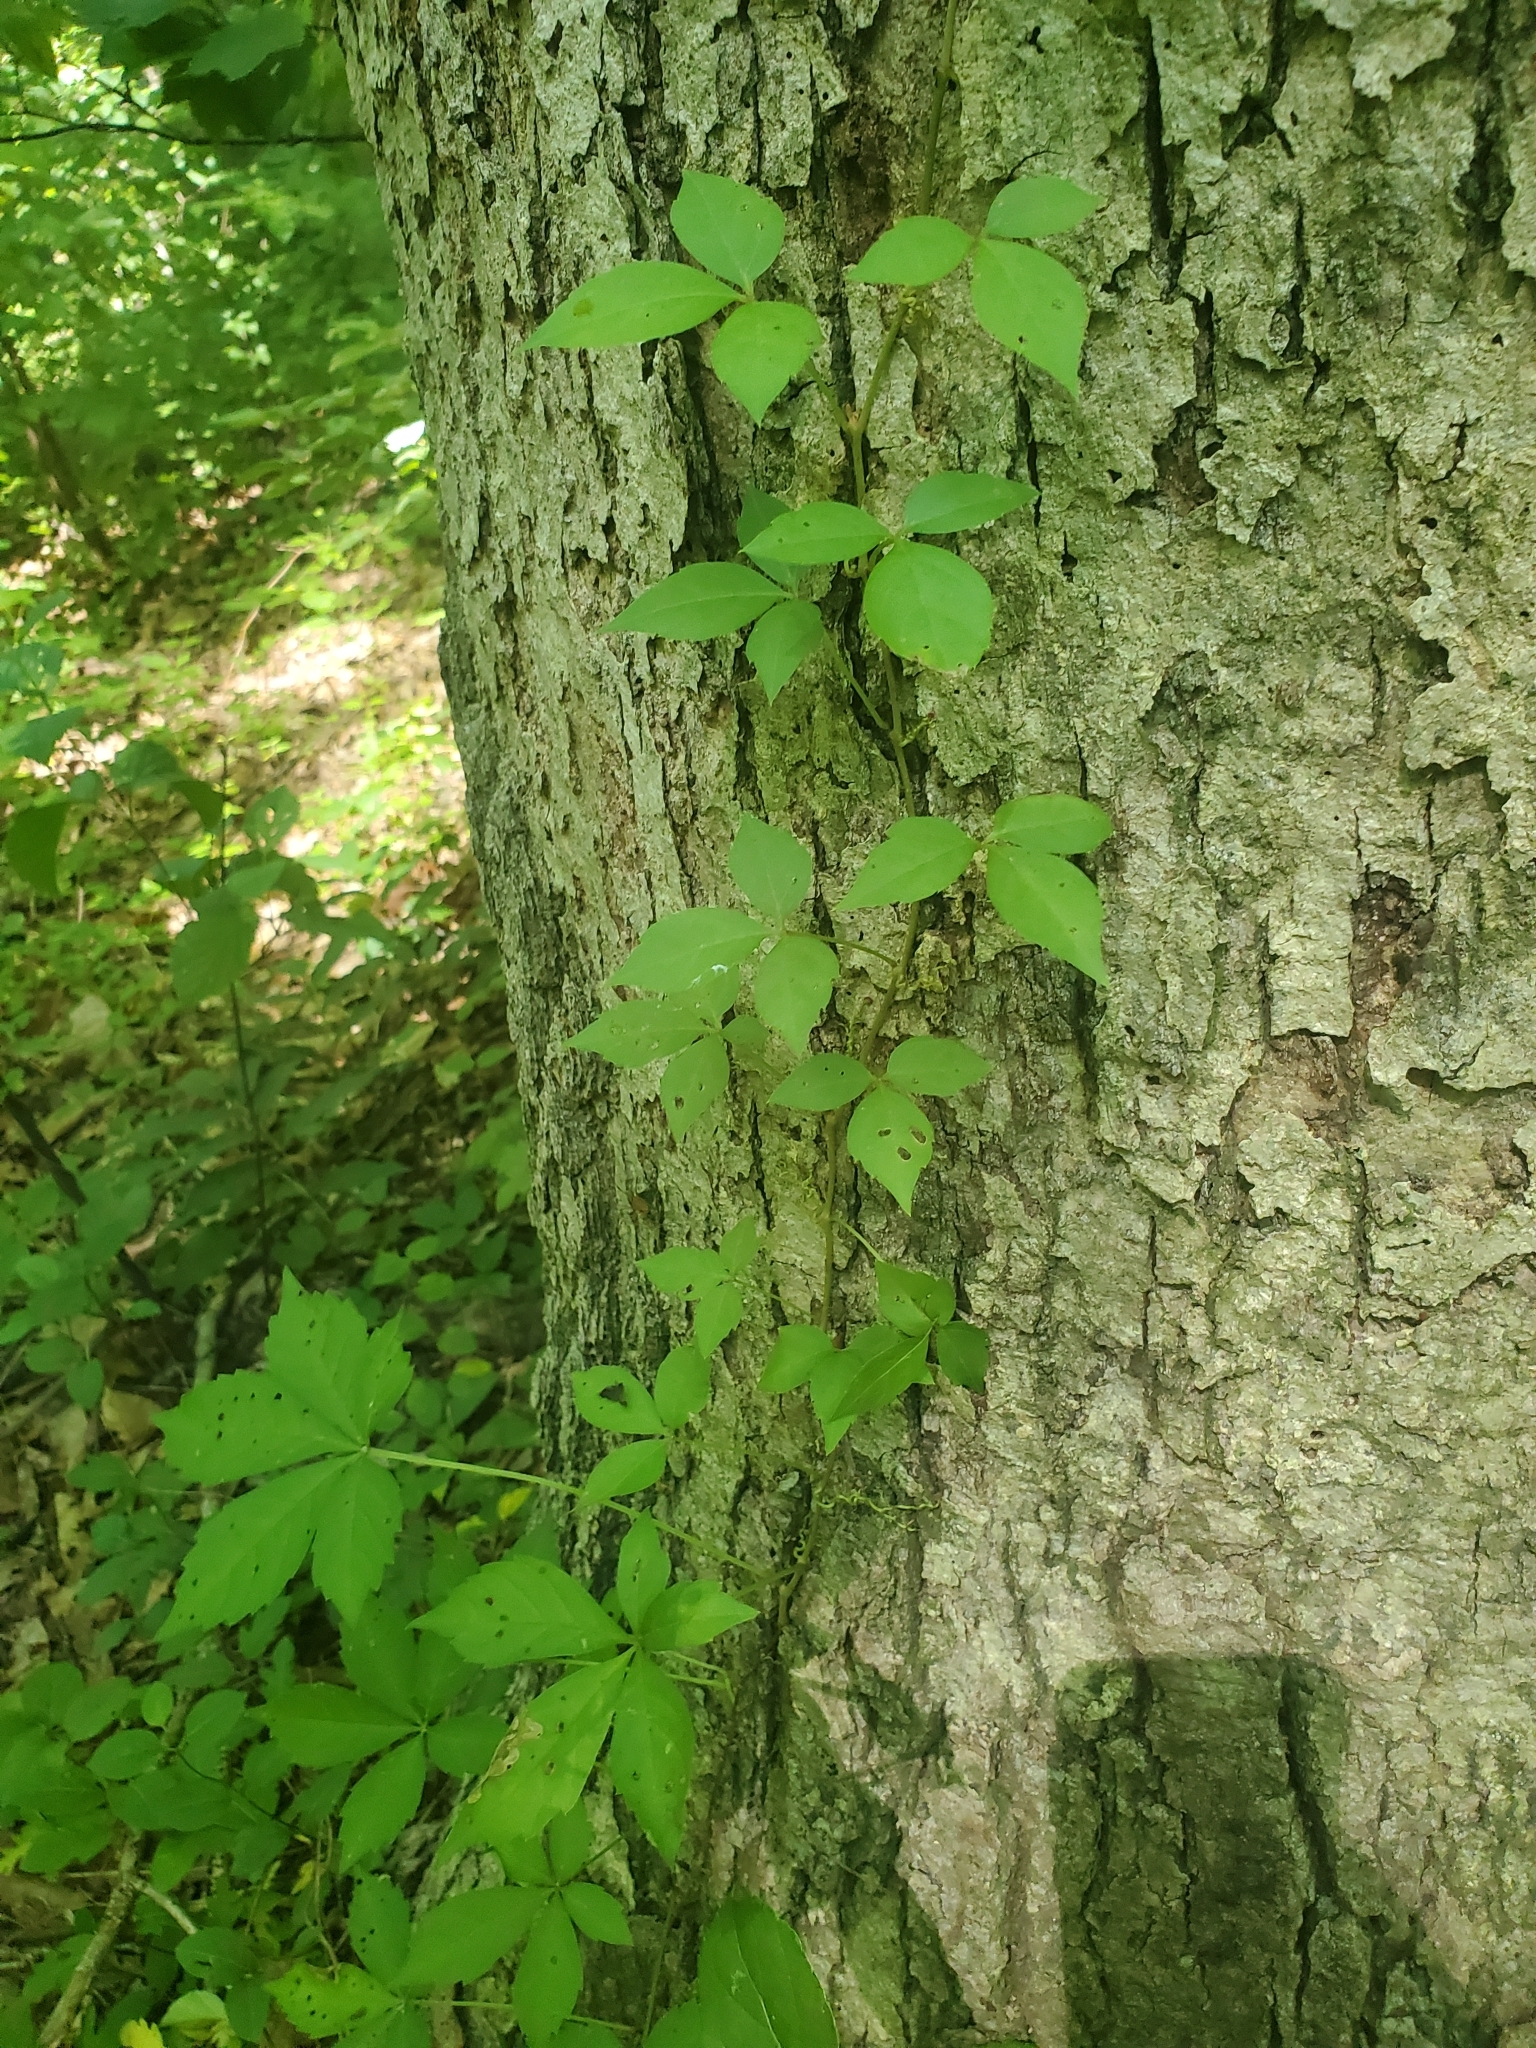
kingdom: Plantae
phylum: Tracheophyta
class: Magnoliopsida
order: Vitales
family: Vitaceae
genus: Parthenocissus
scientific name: Parthenocissus quinquefolia
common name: Virginia-creeper
